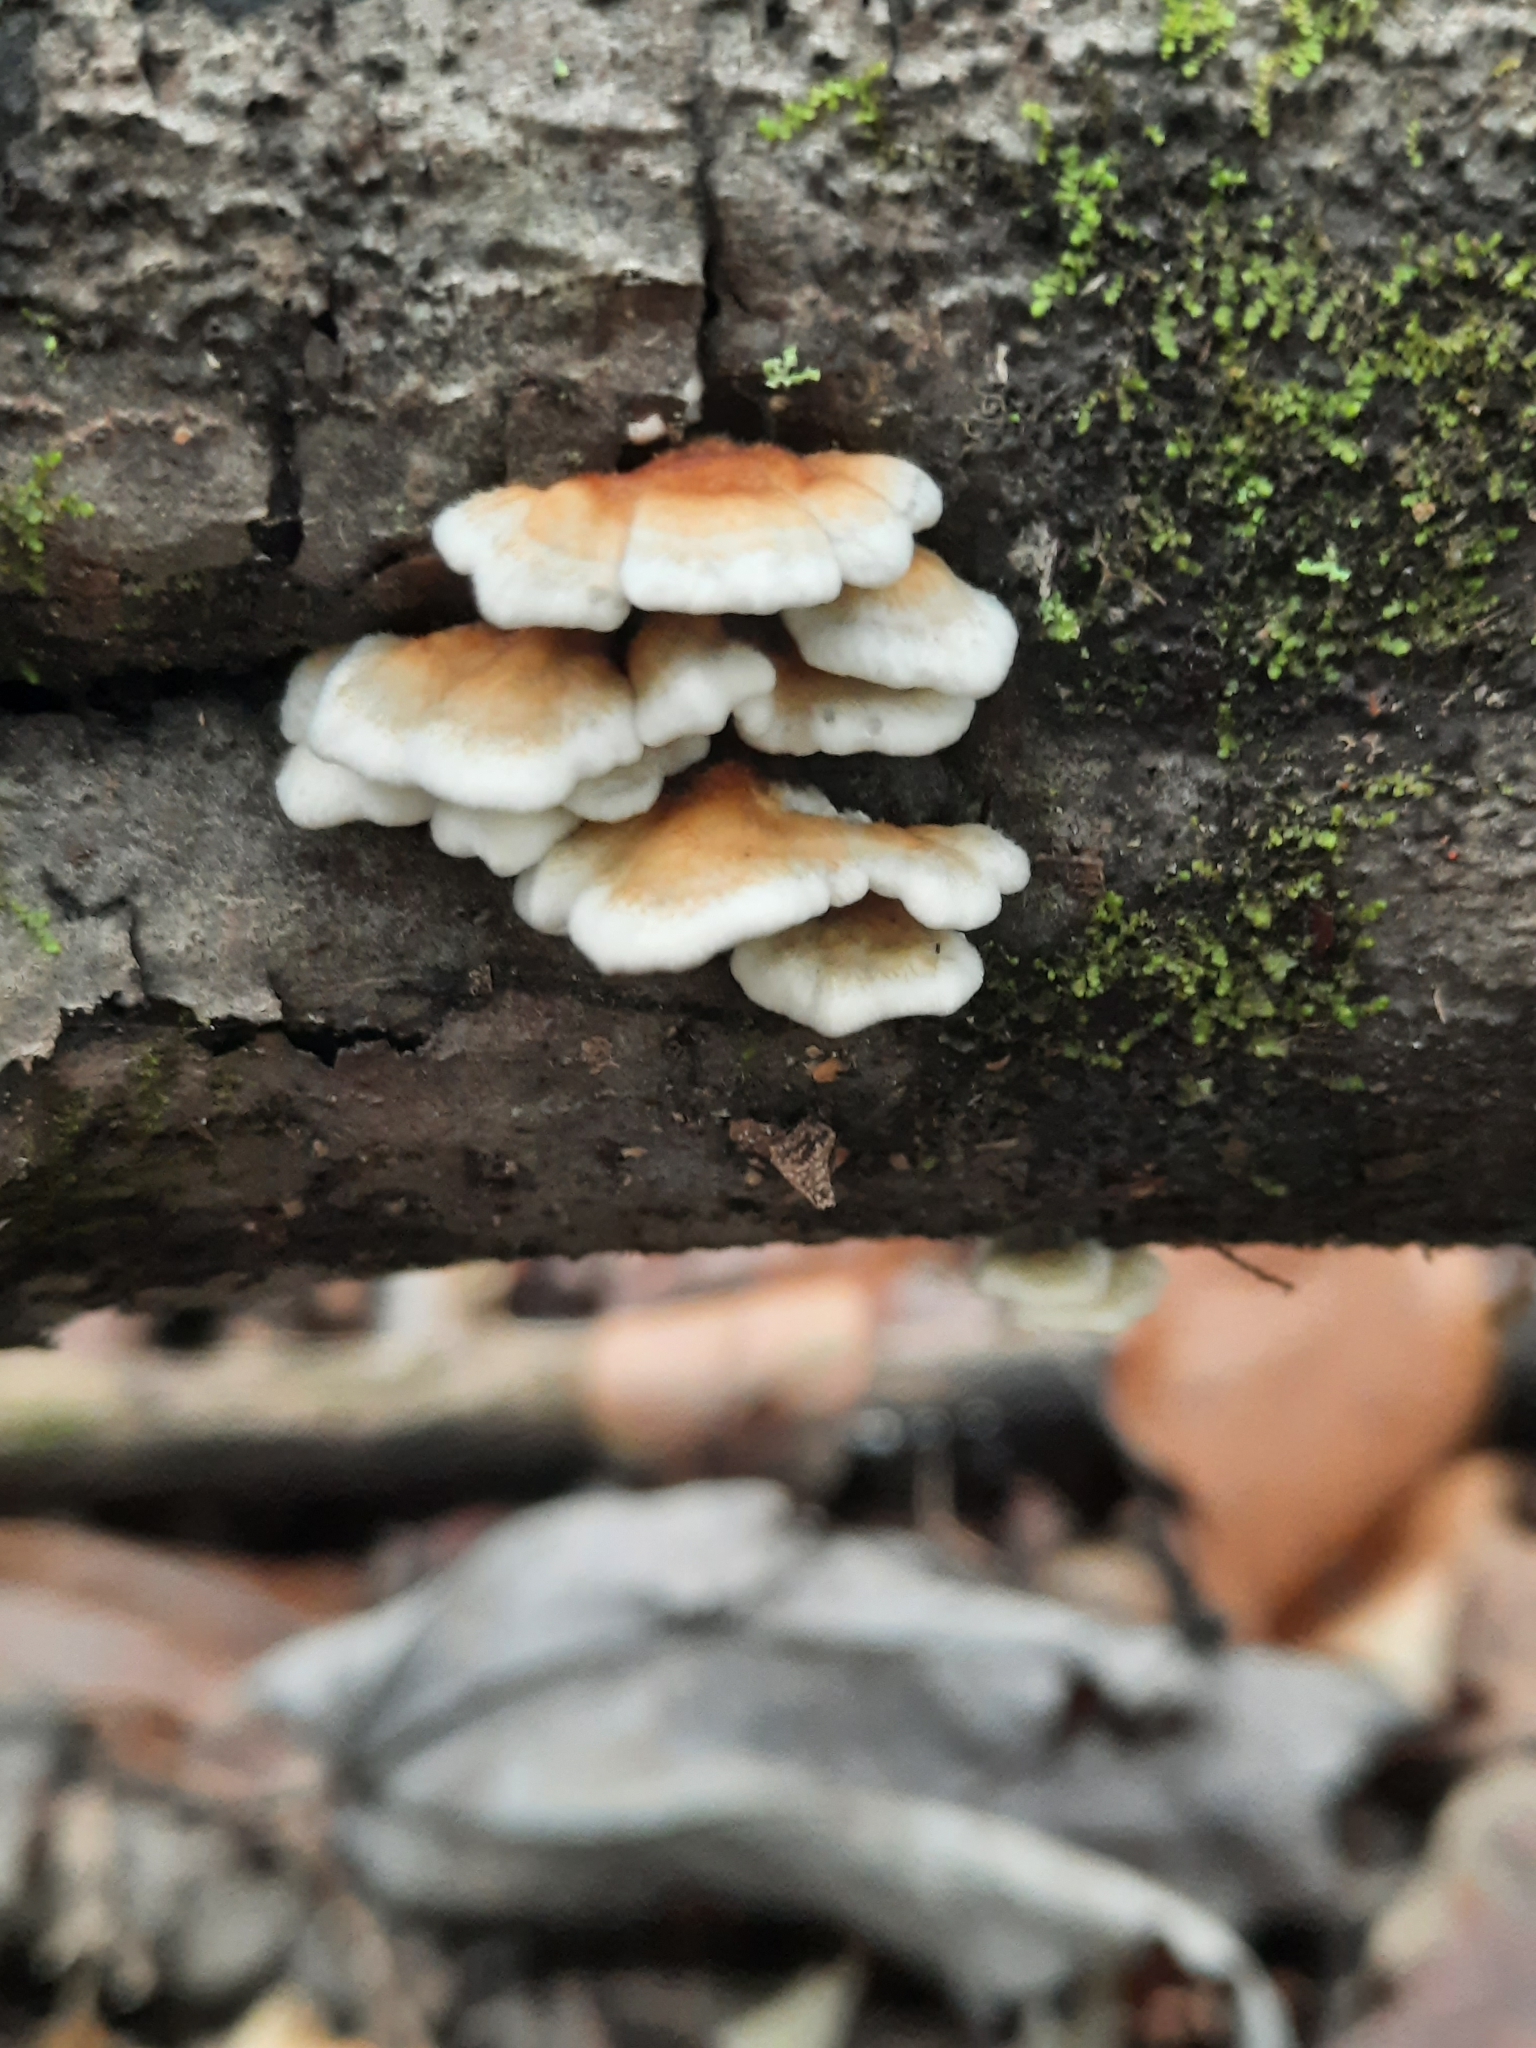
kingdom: Fungi
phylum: Basidiomycota
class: Agaricomycetes
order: Amylocorticiales
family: Amylocorticiaceae
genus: Plicaturopsis
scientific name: Plicaturopsis crispa
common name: Crimped gill
